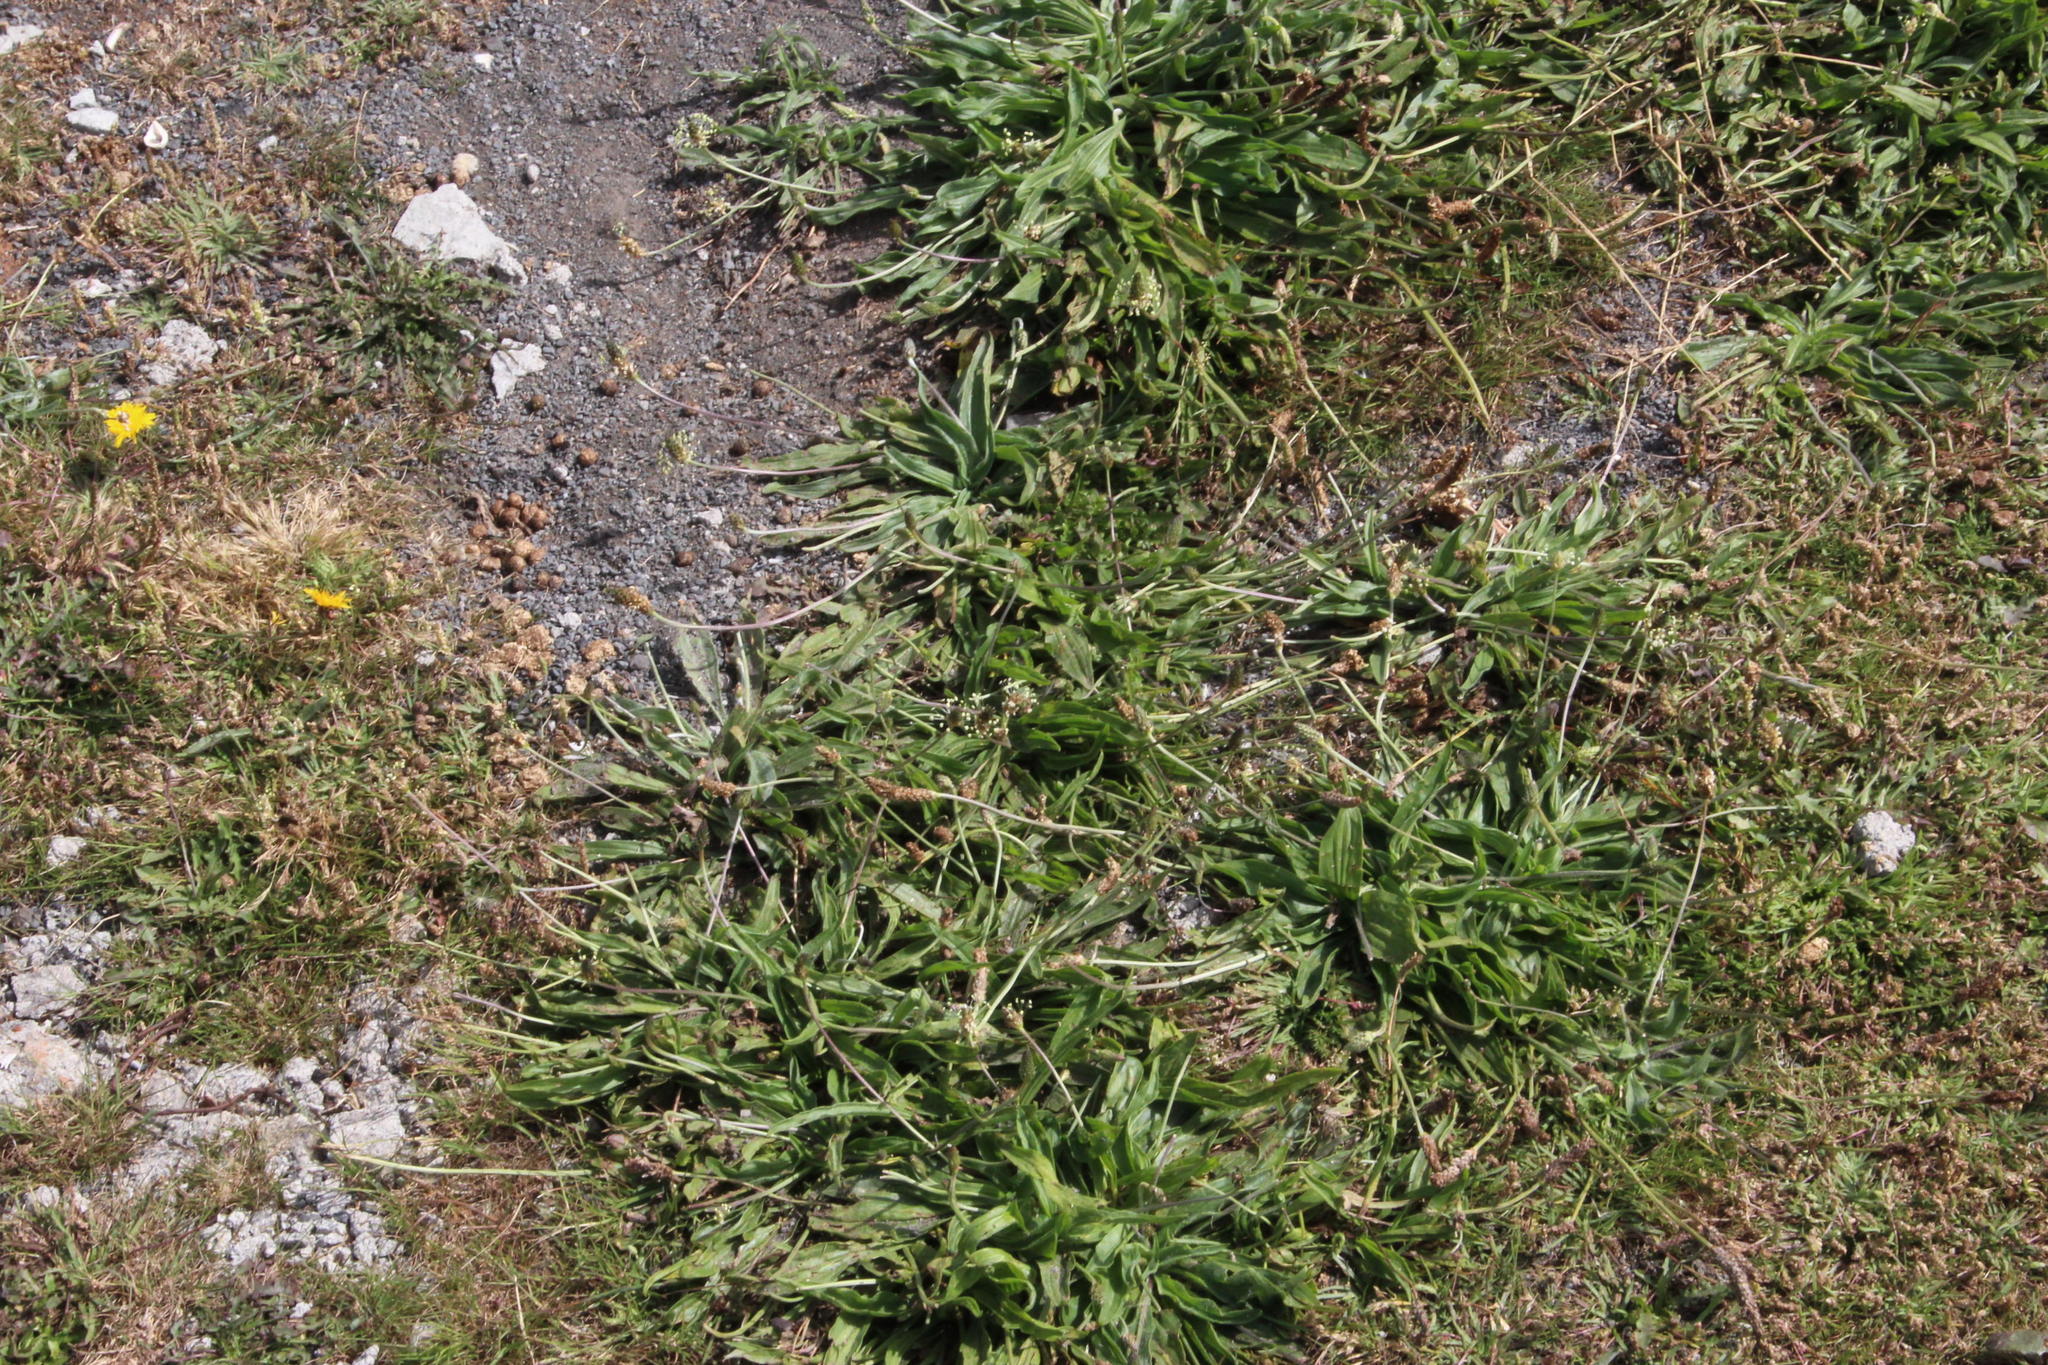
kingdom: Plantae
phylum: Tracheophyta
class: Magnoliopsida
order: Lamiales
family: Plantaginaceae
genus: Plantago
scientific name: Plantago lagopus
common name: Hare-foot plantain
